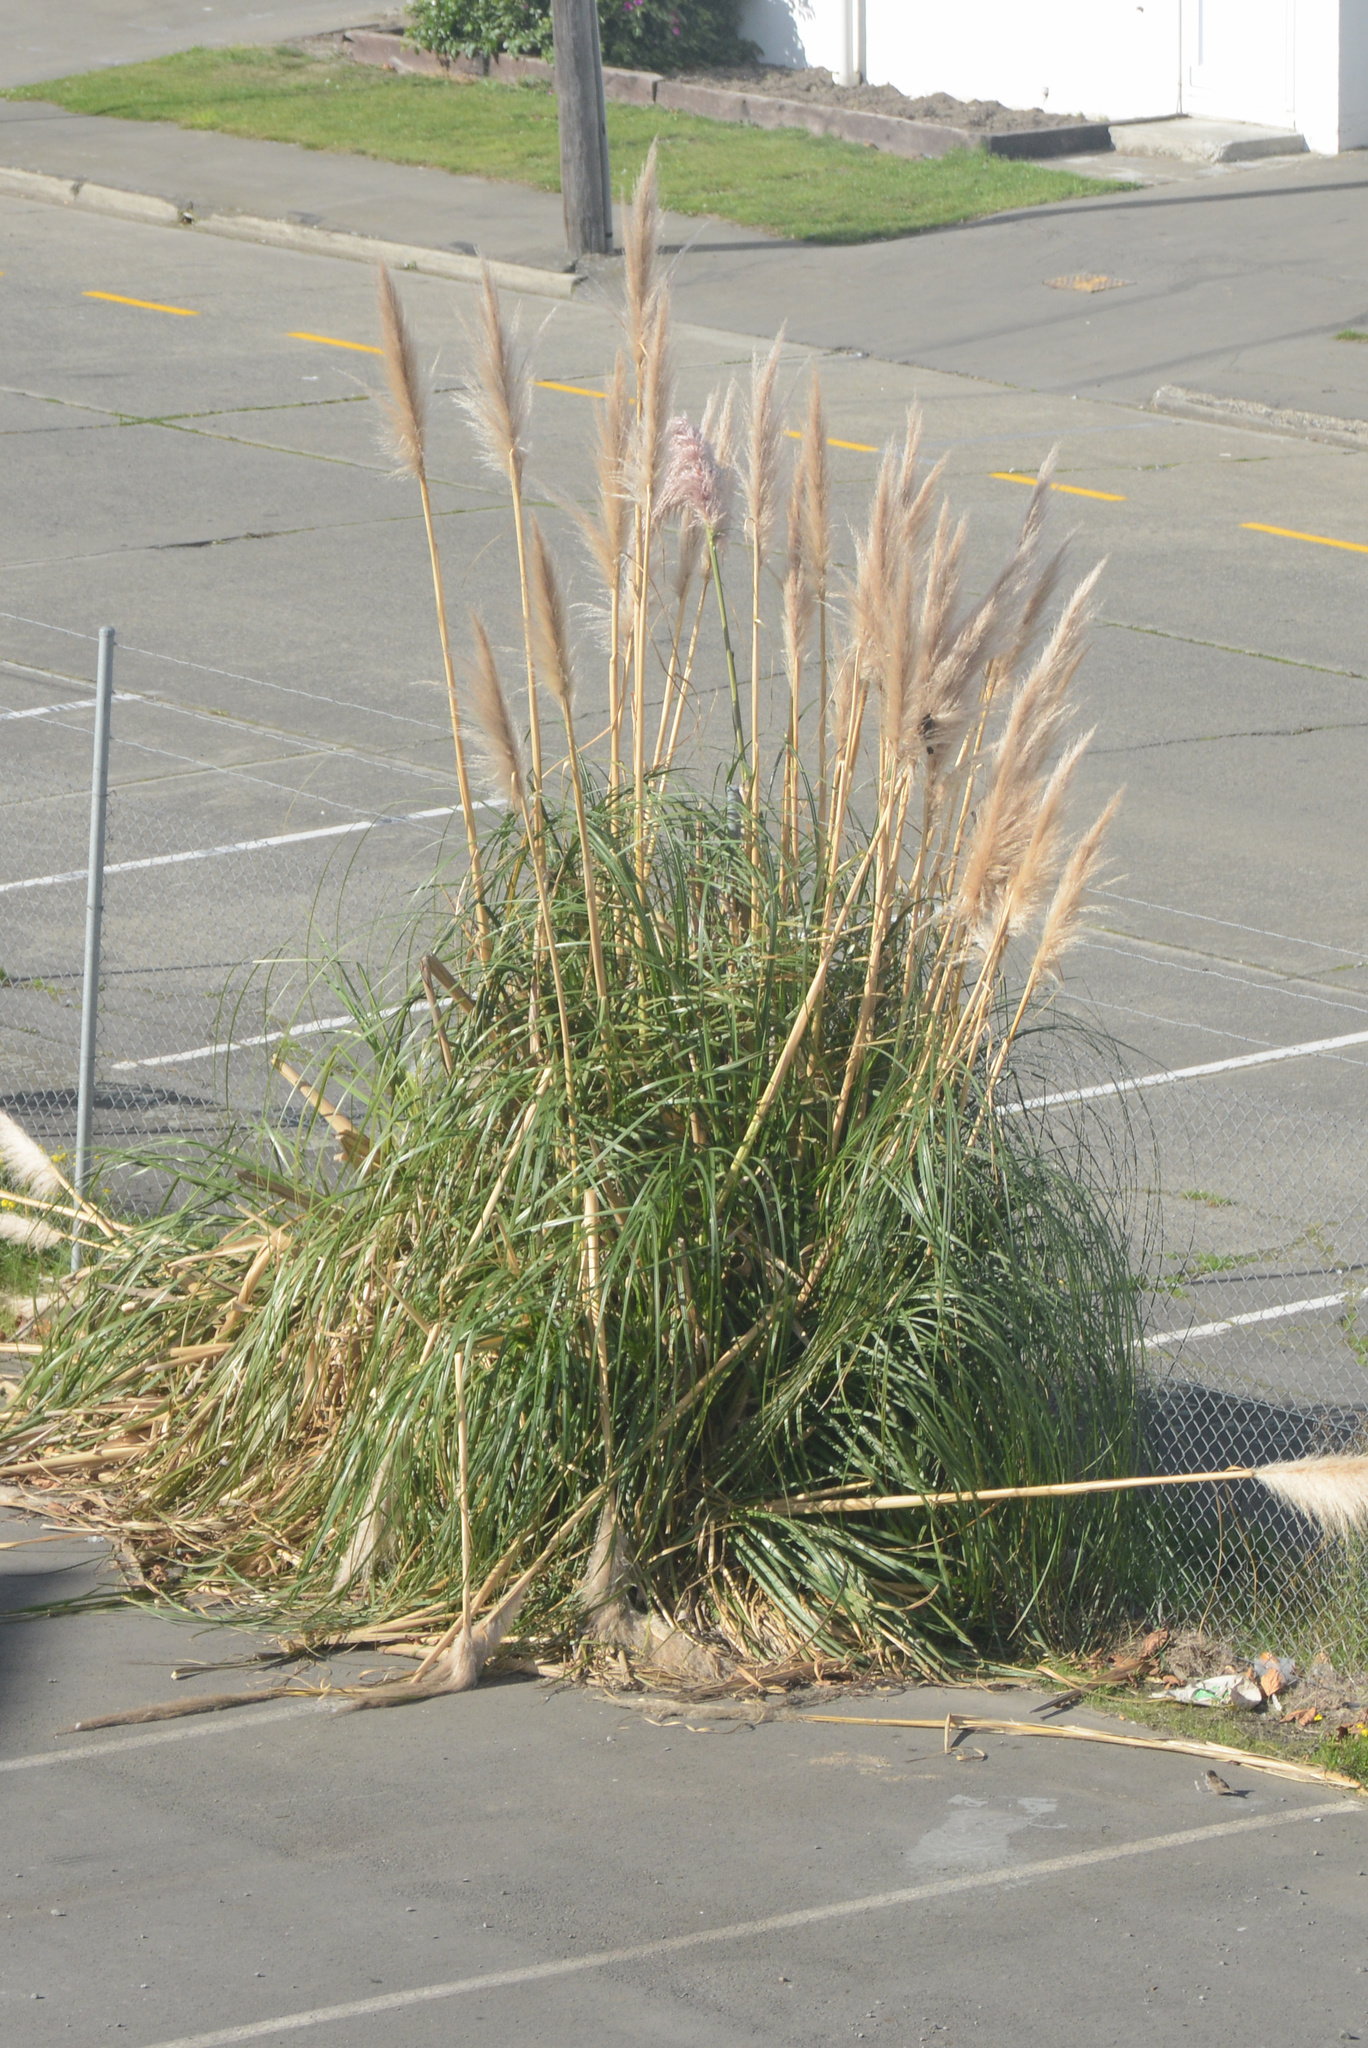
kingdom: Plantae
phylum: Tracheophyta
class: Liliopsida
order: Poales
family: Poaceae
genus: Cortaderia
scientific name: Cortaderia selloana
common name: Uruguayan pampas grass
